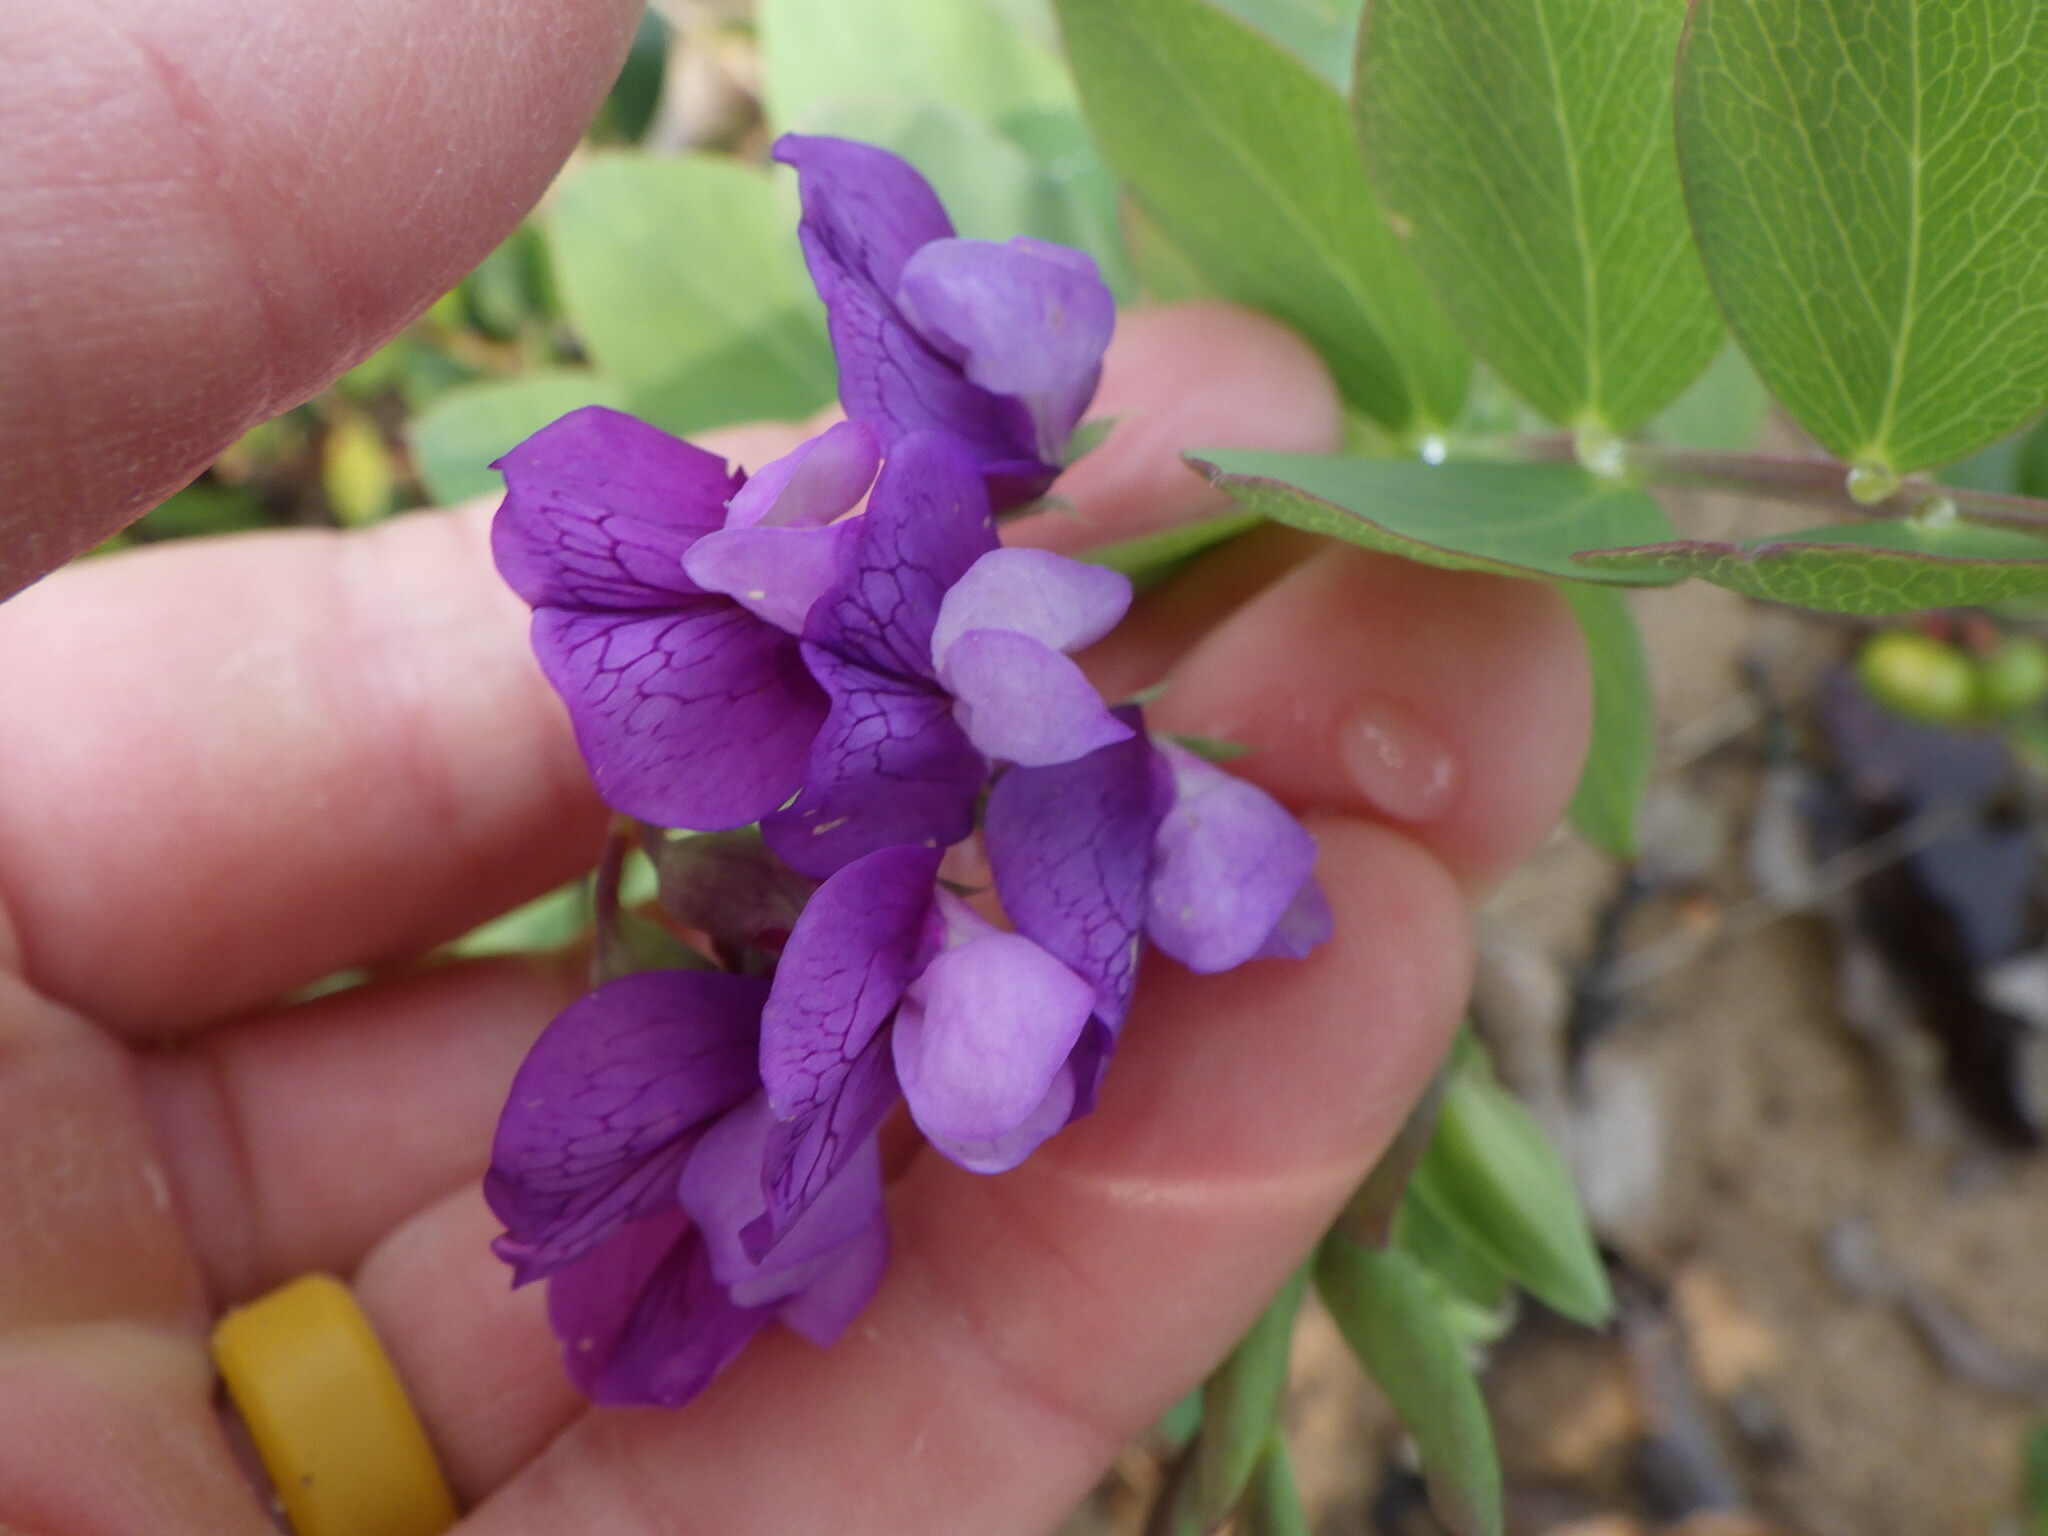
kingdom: Plantae
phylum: Tracheophyta
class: Magnoliopsida
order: Fabales
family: Fabaceae
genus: Lathyrus
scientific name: Lathyrus japonicus
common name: Sea pea
